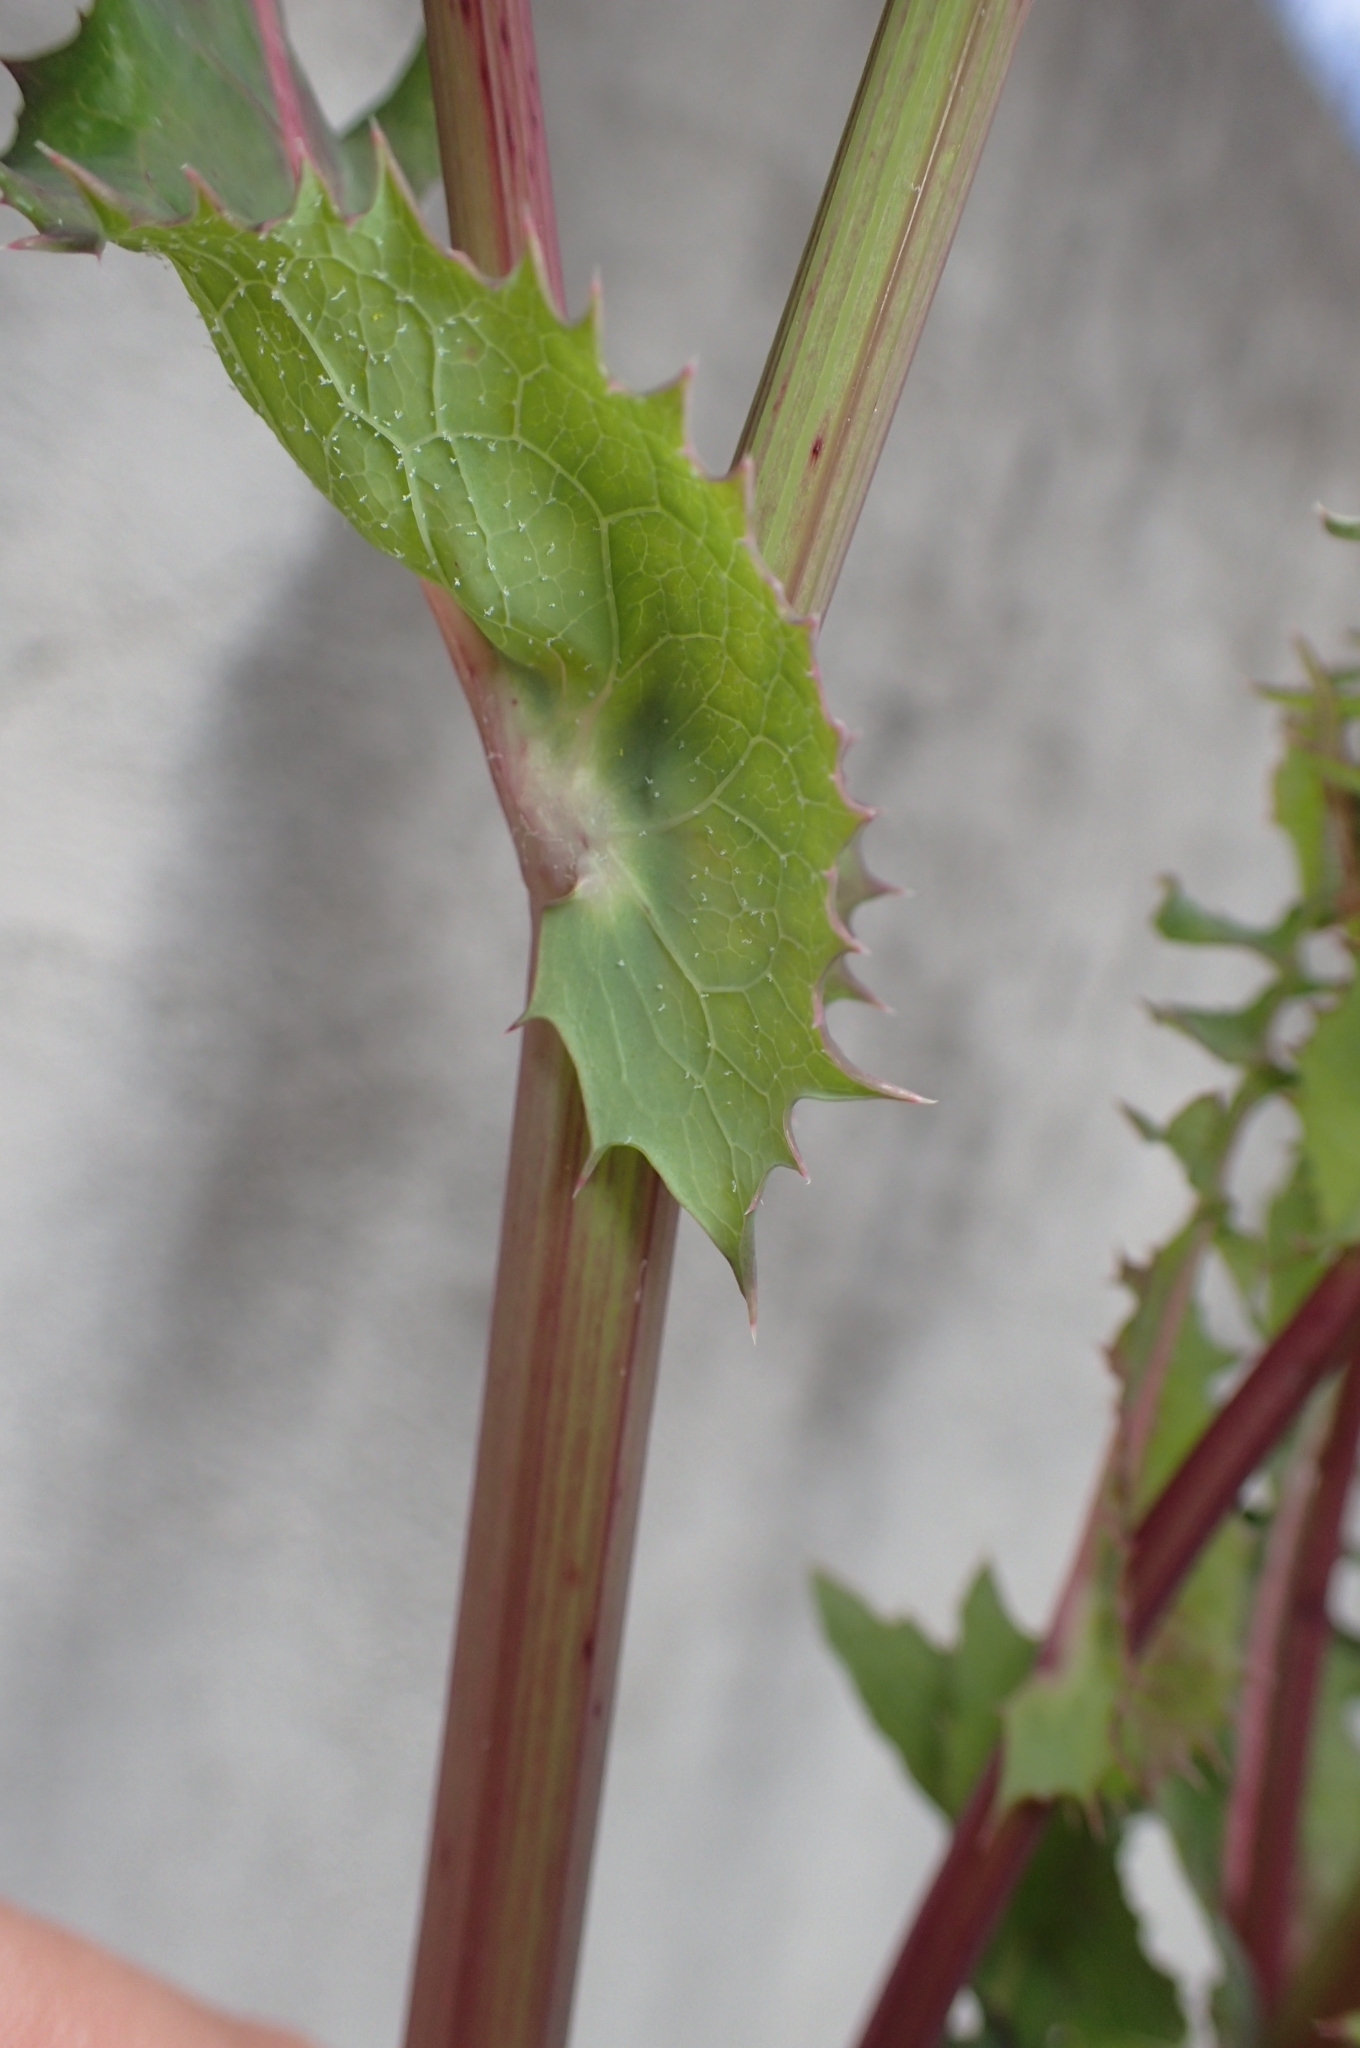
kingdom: Plantae
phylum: Tracheophyta
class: Magnoliopsida
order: Asterales
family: Asteraceae
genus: Sonchus
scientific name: Sonchus oleraceus
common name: Common sowthistle
